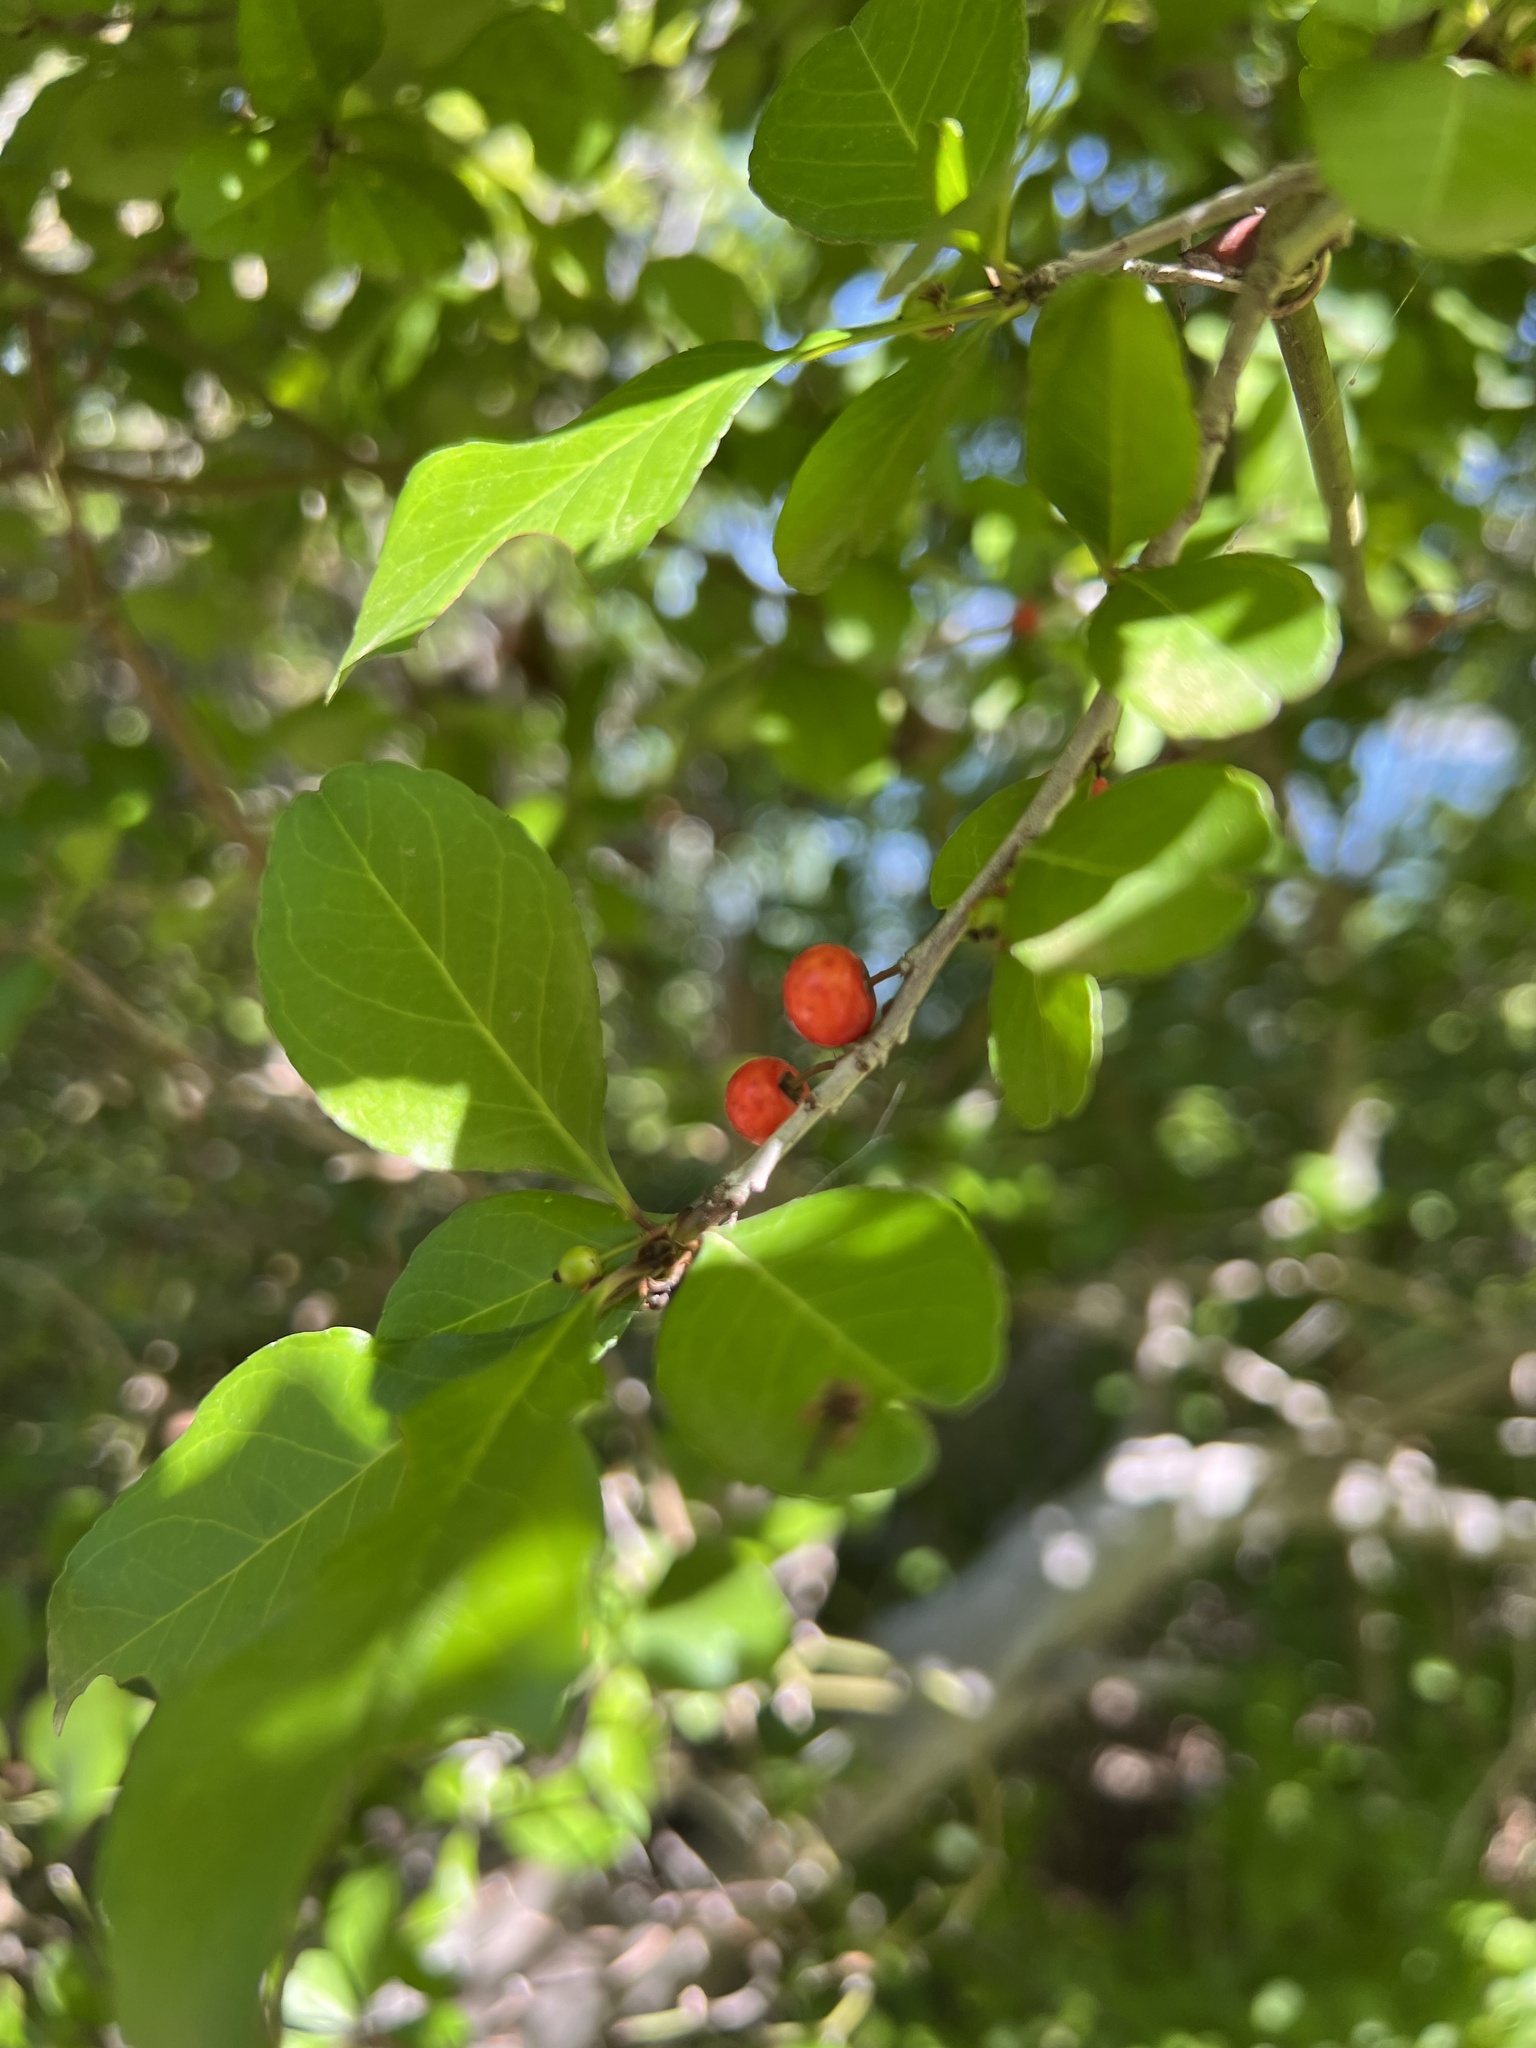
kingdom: Plantae
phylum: Tracheophyta
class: Magnoliopsida
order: Aquifoliales
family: Aquifoliaceae
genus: Ilex
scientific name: Ilex decidua
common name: Possum-haw
